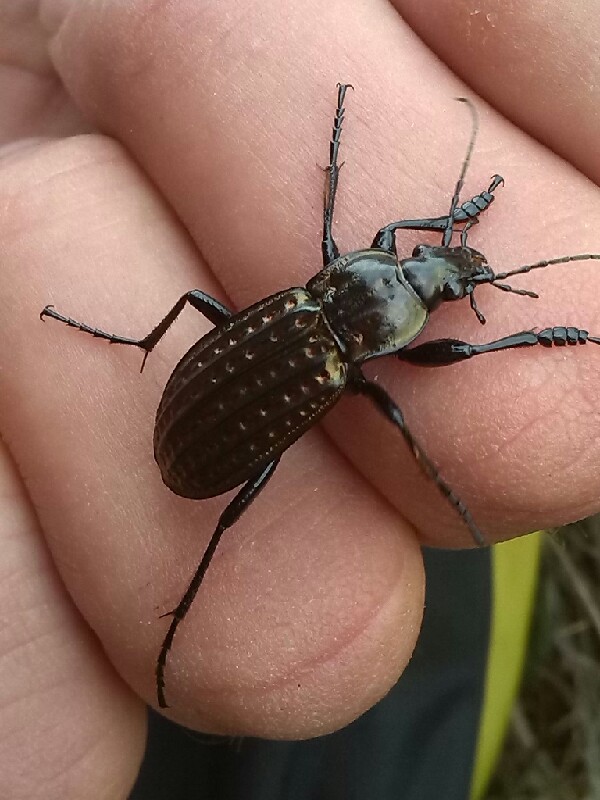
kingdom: Animalia
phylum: Arthropoda
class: Insecta
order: Coleoptera
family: Carabidae
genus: Carabus
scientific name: Carabus clatratus
